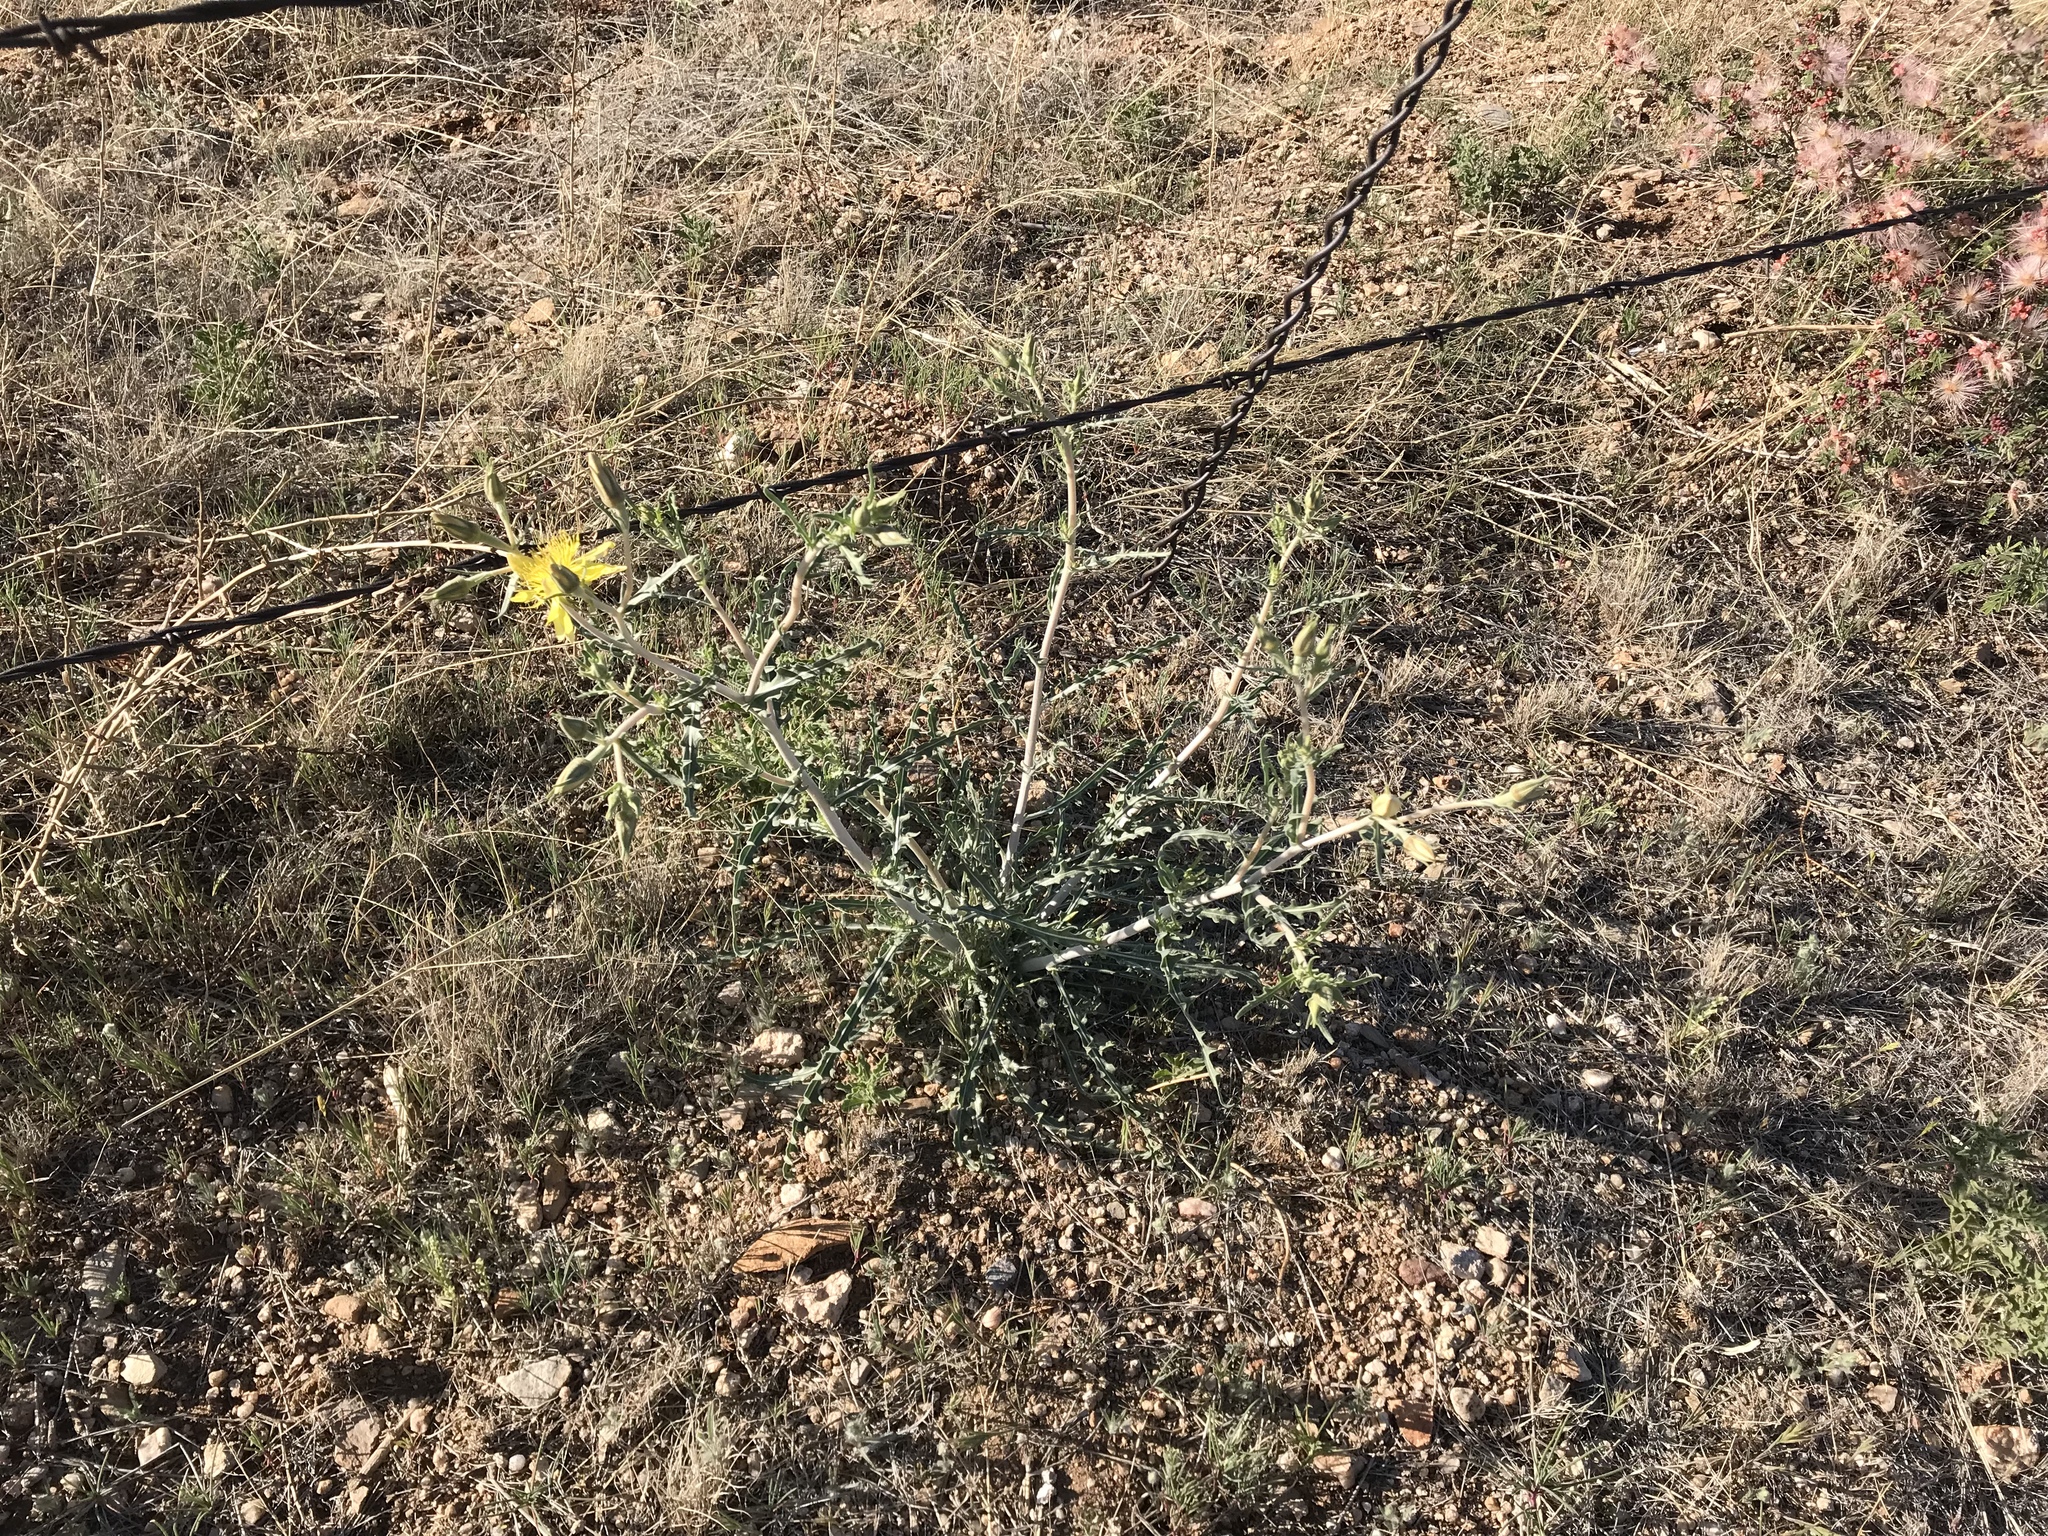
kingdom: Plantae
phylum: Tracheophyta
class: Magnoliopsida
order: Cornales
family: Loasaceae
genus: Mentzelia
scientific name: Mentzelia longiloba
